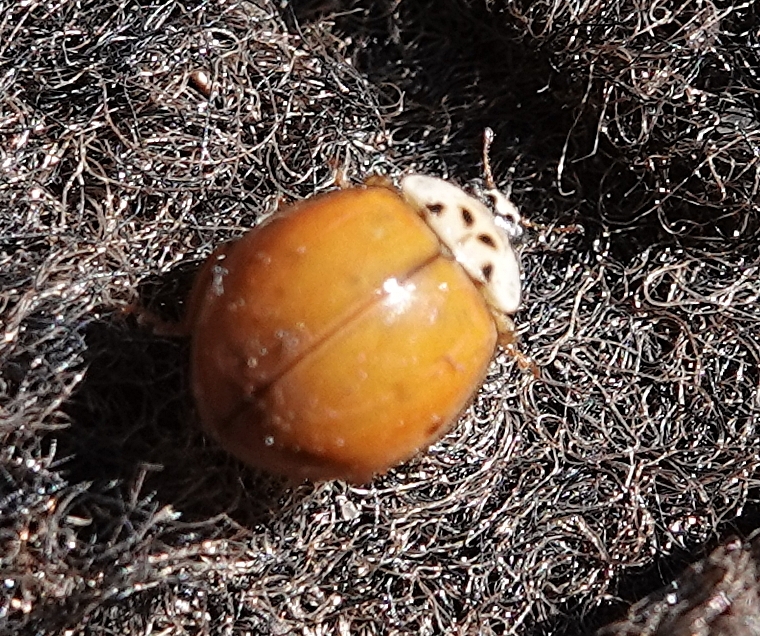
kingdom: Animalia
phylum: Arthropoda
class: Insecta
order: Coleoptera
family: Coccinellidae
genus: Harmonia
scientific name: Harmonia axyridis
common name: Harlequin ladybird
